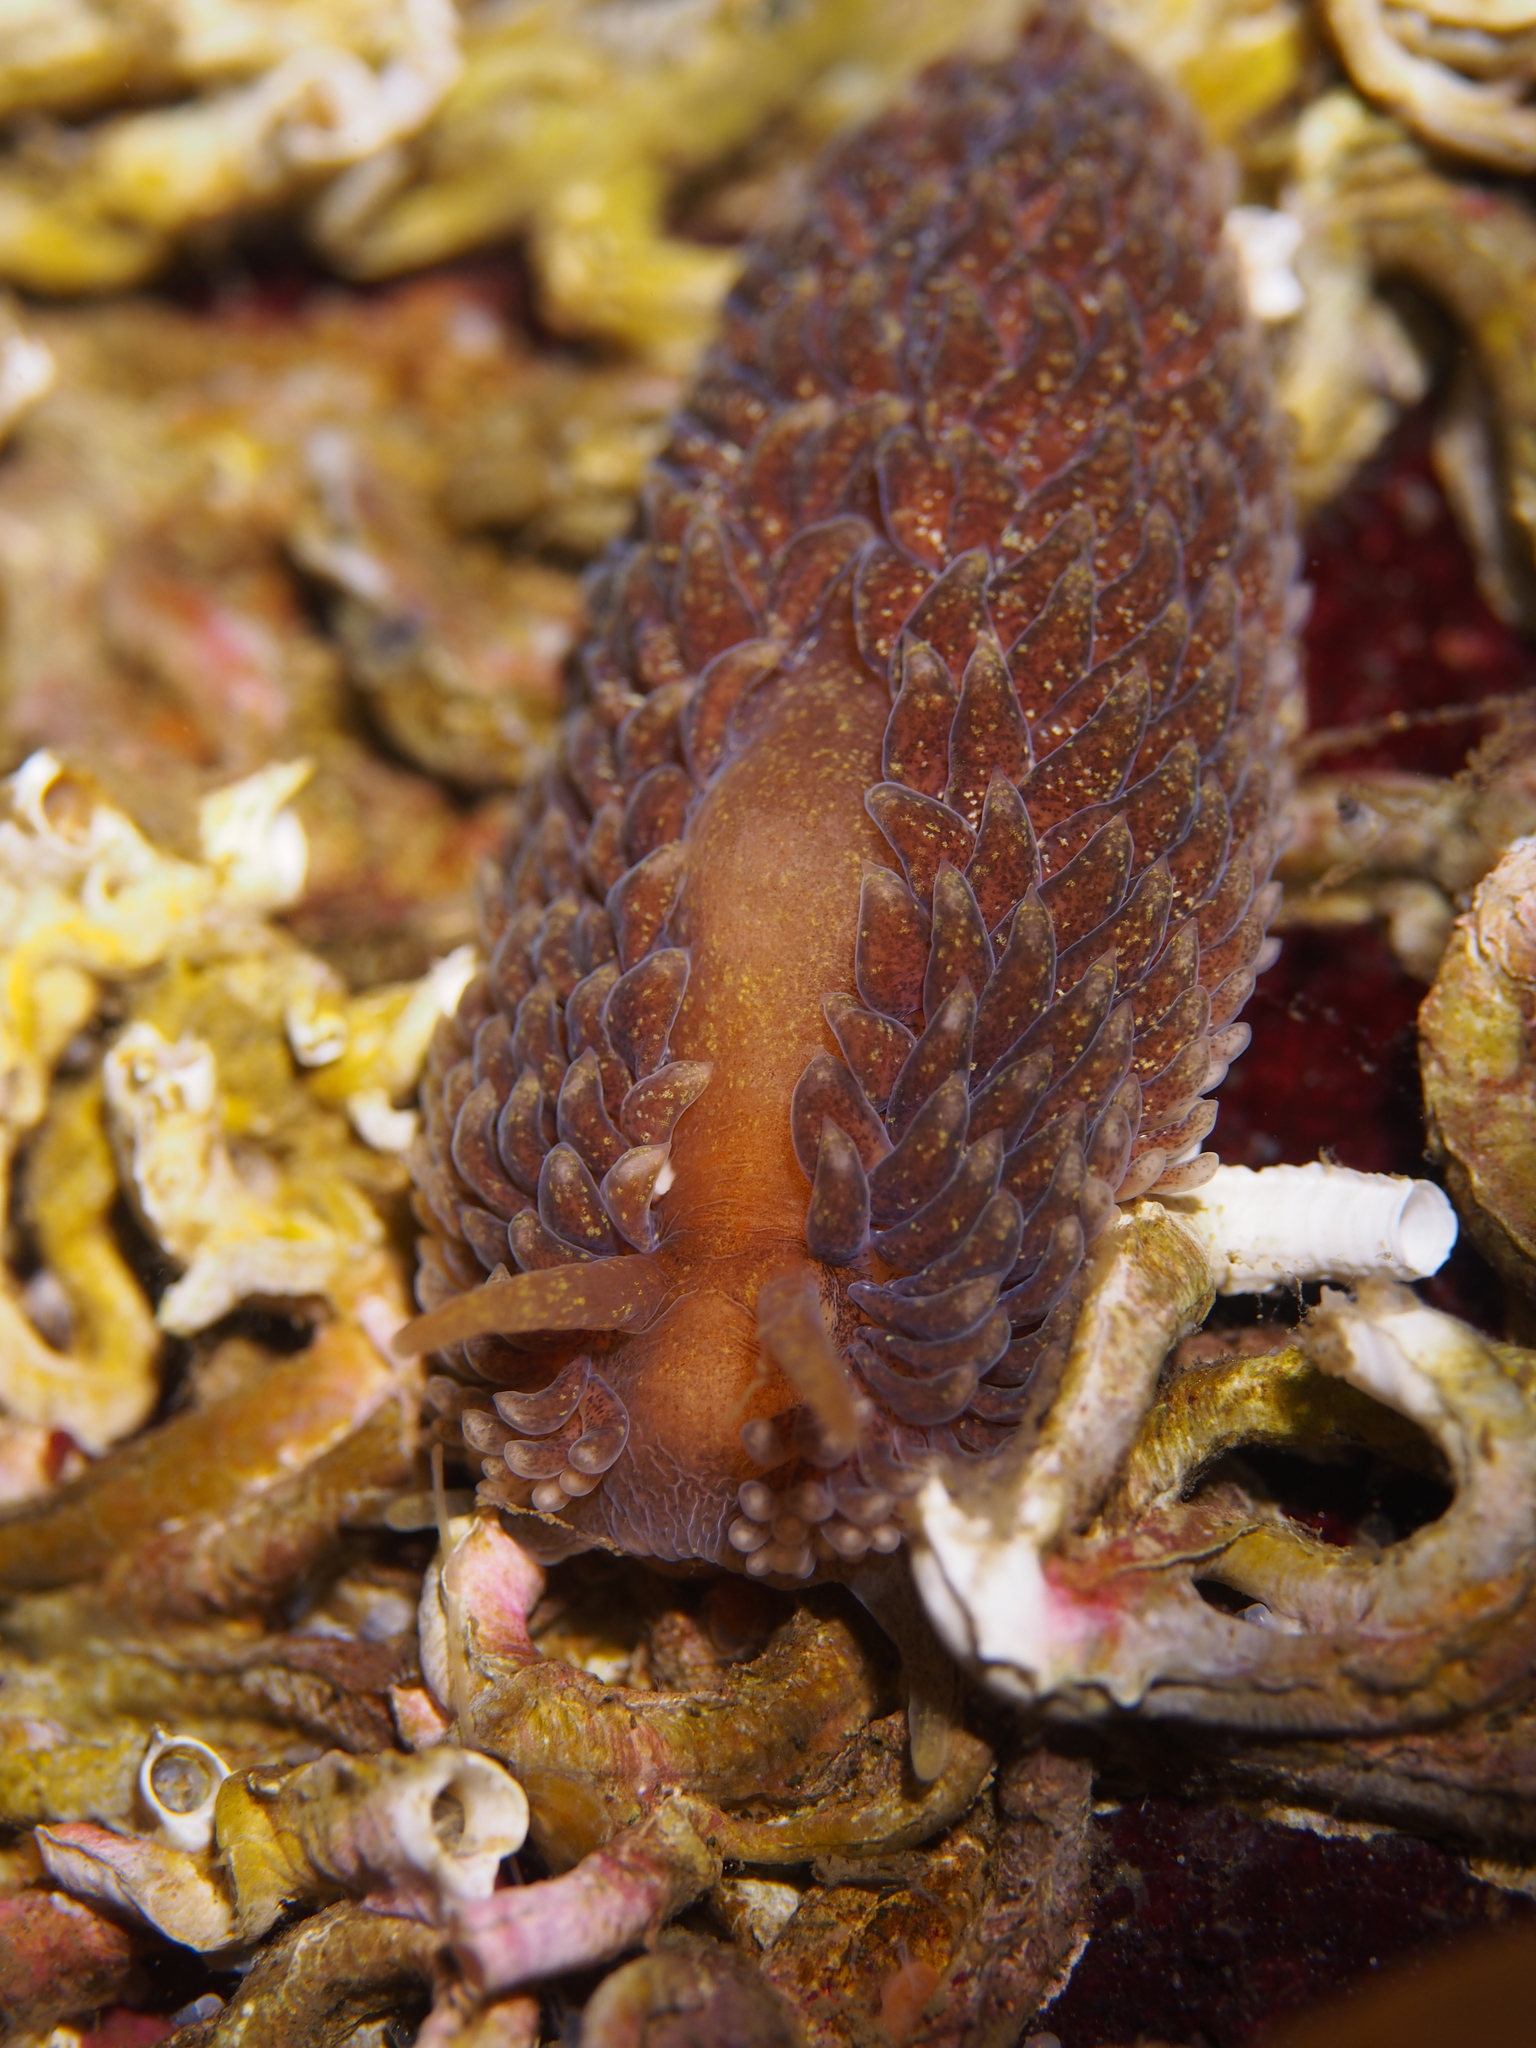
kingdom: Animalia
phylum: Mollusca
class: Gastropoda
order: Nudibranchia
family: Aeolidiidae
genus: Aeolidia
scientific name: Aeolidia papillosa
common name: Common grey sea slug
